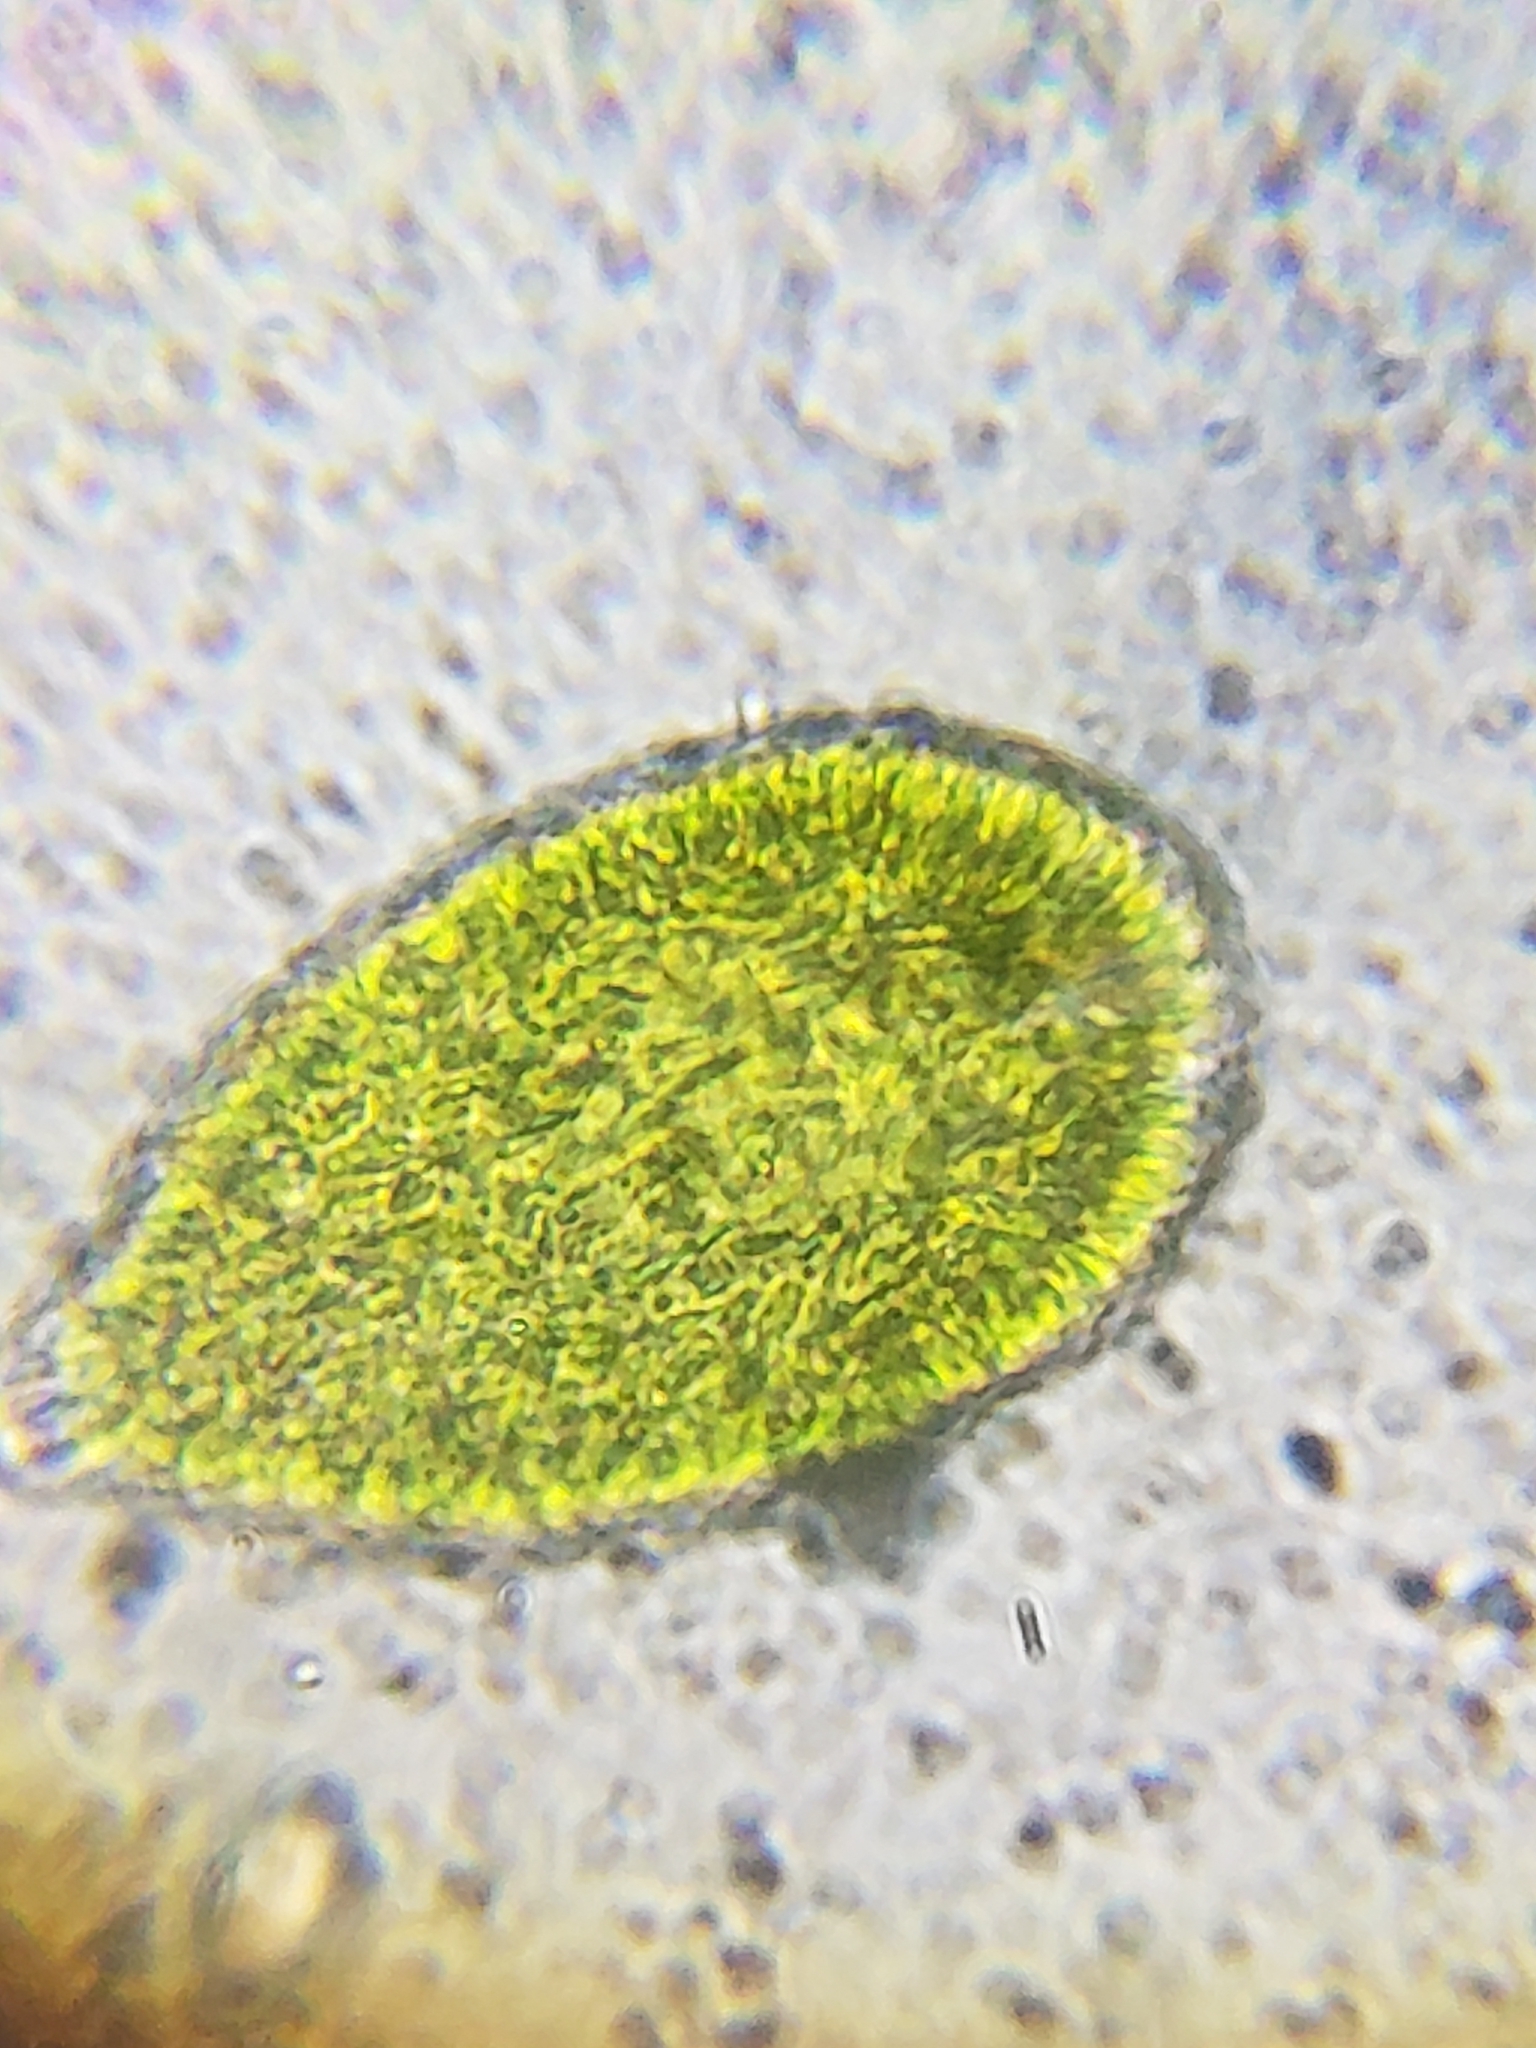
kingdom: Chromista
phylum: Ochrophyta
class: Raphidophyceae
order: Chattonellales
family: Vacuolariaceae
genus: Gonyostomum
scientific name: Gonyostomum semen
